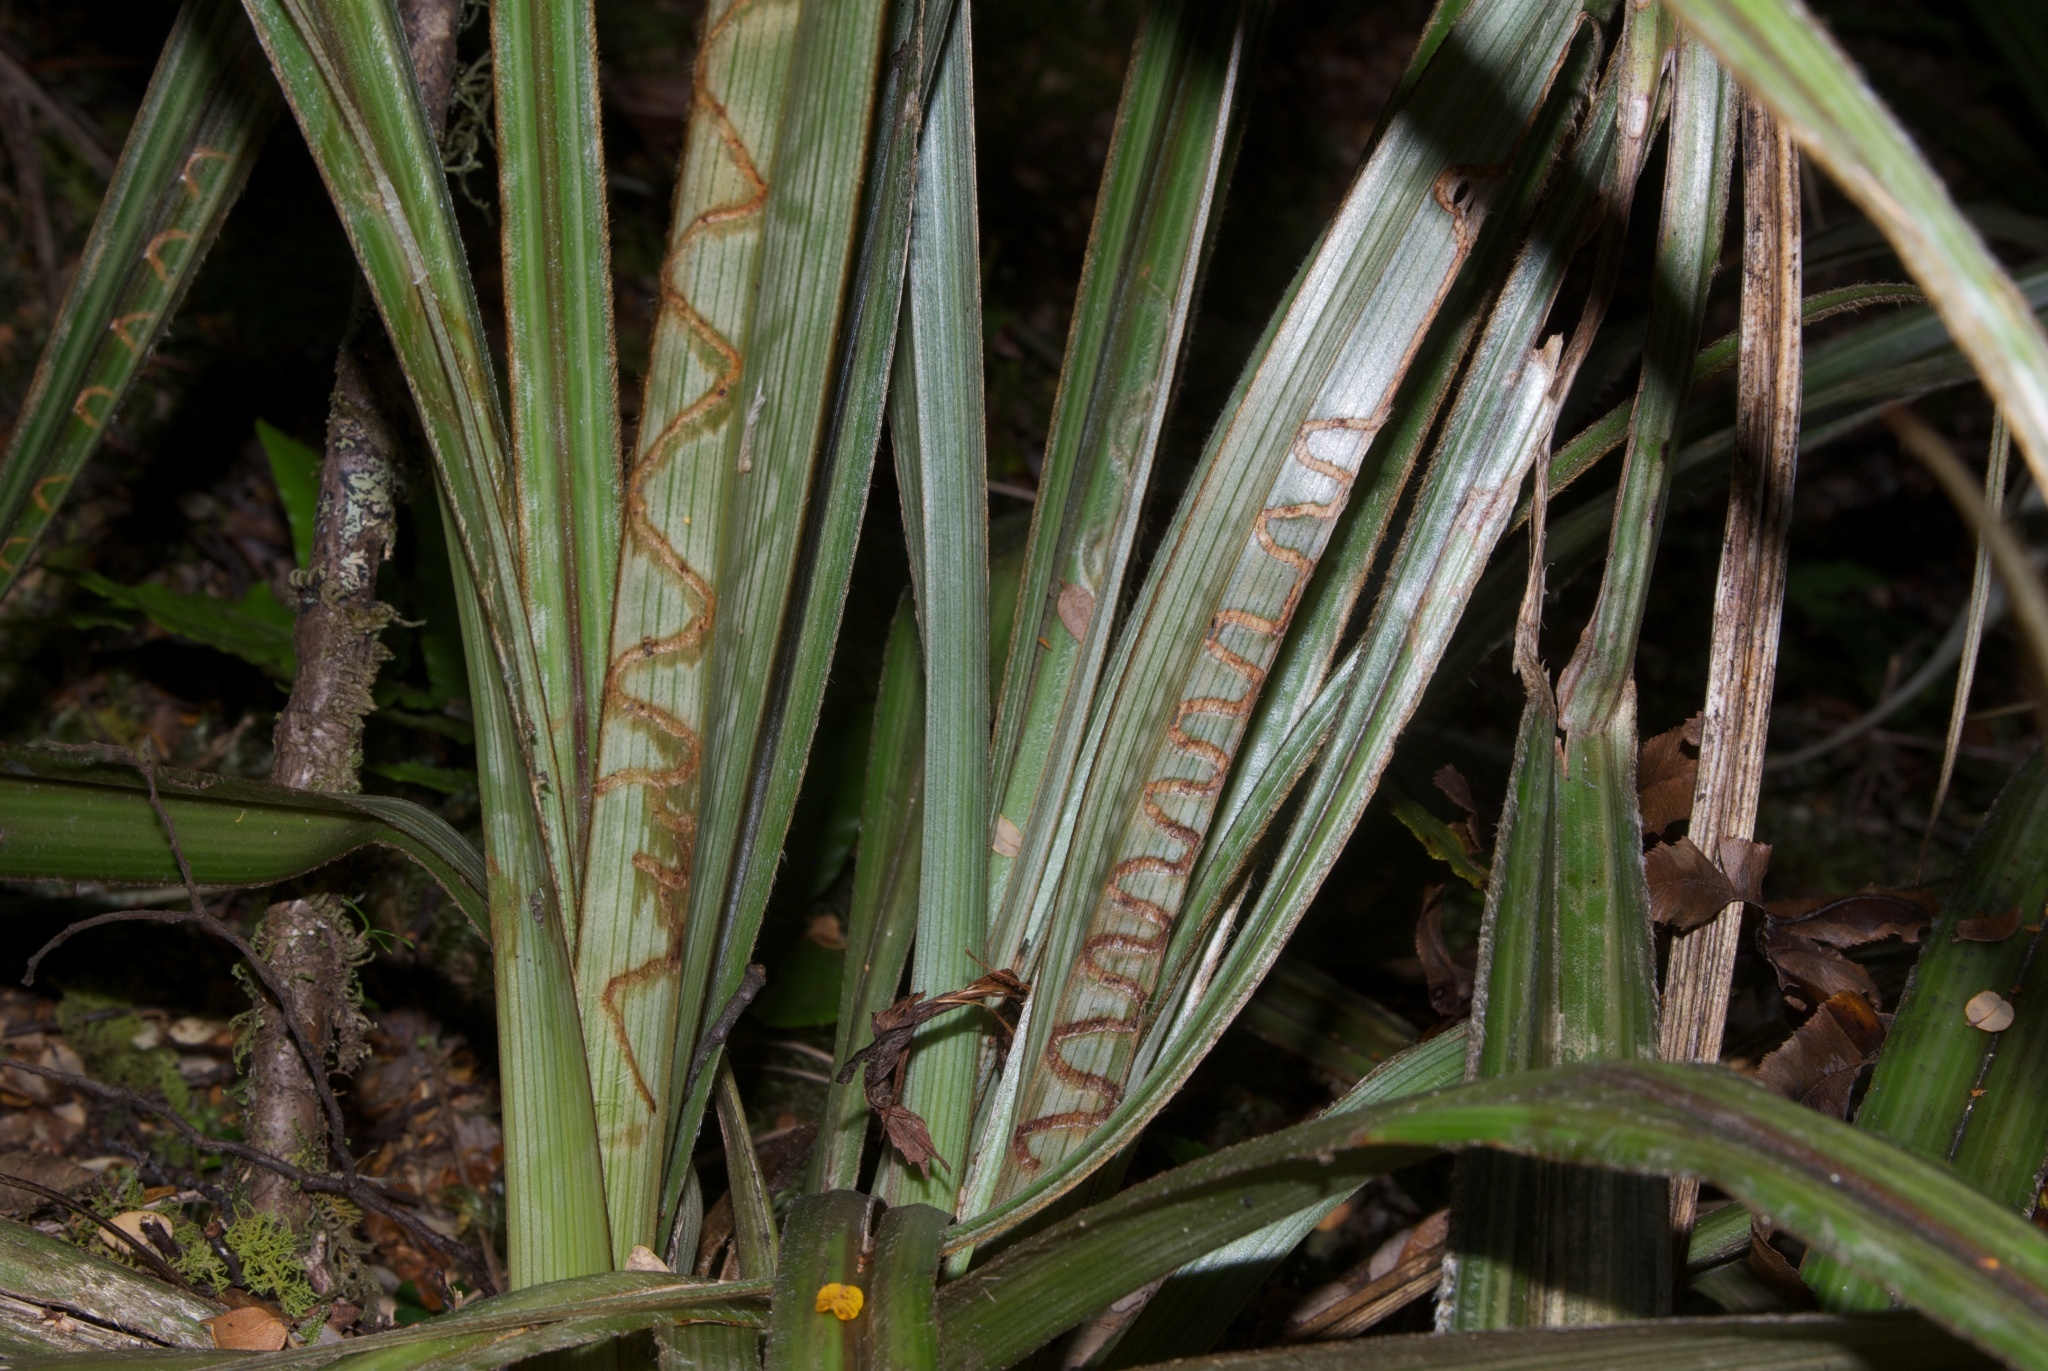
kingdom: Animalia
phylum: Arthropoda
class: Insecta
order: Lepidoptera
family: Plutellidae
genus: Charixena
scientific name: Charixena iridoxa
